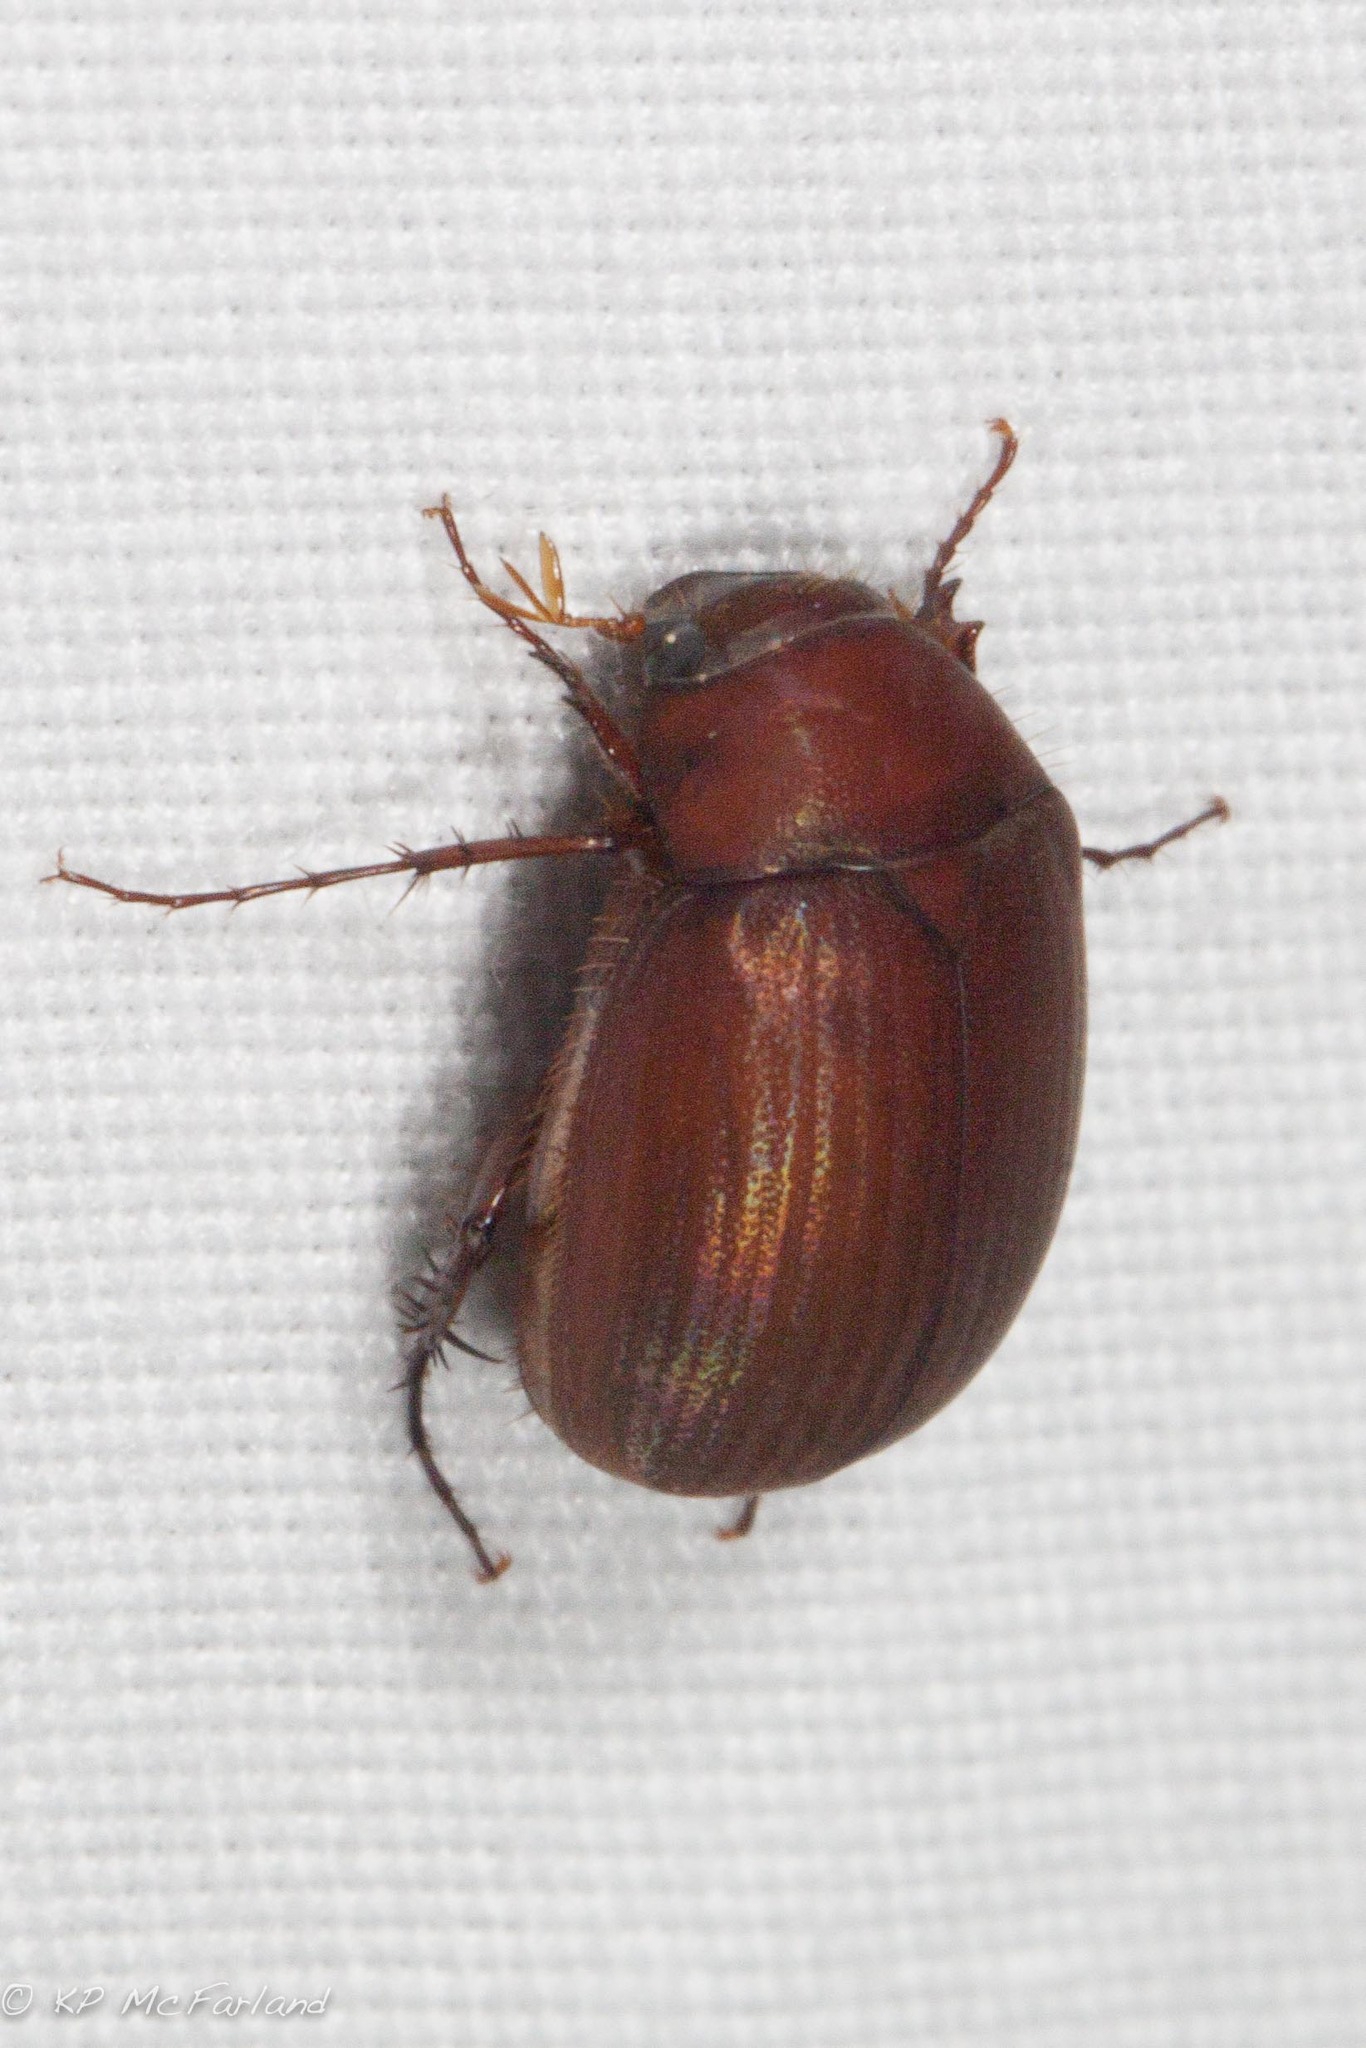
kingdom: Animalia
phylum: Arthropoda
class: Insecta
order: Coleoptera
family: Scarabaeidae
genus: Maladera
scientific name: Maladera formosae
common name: Asiatic garden beetle
